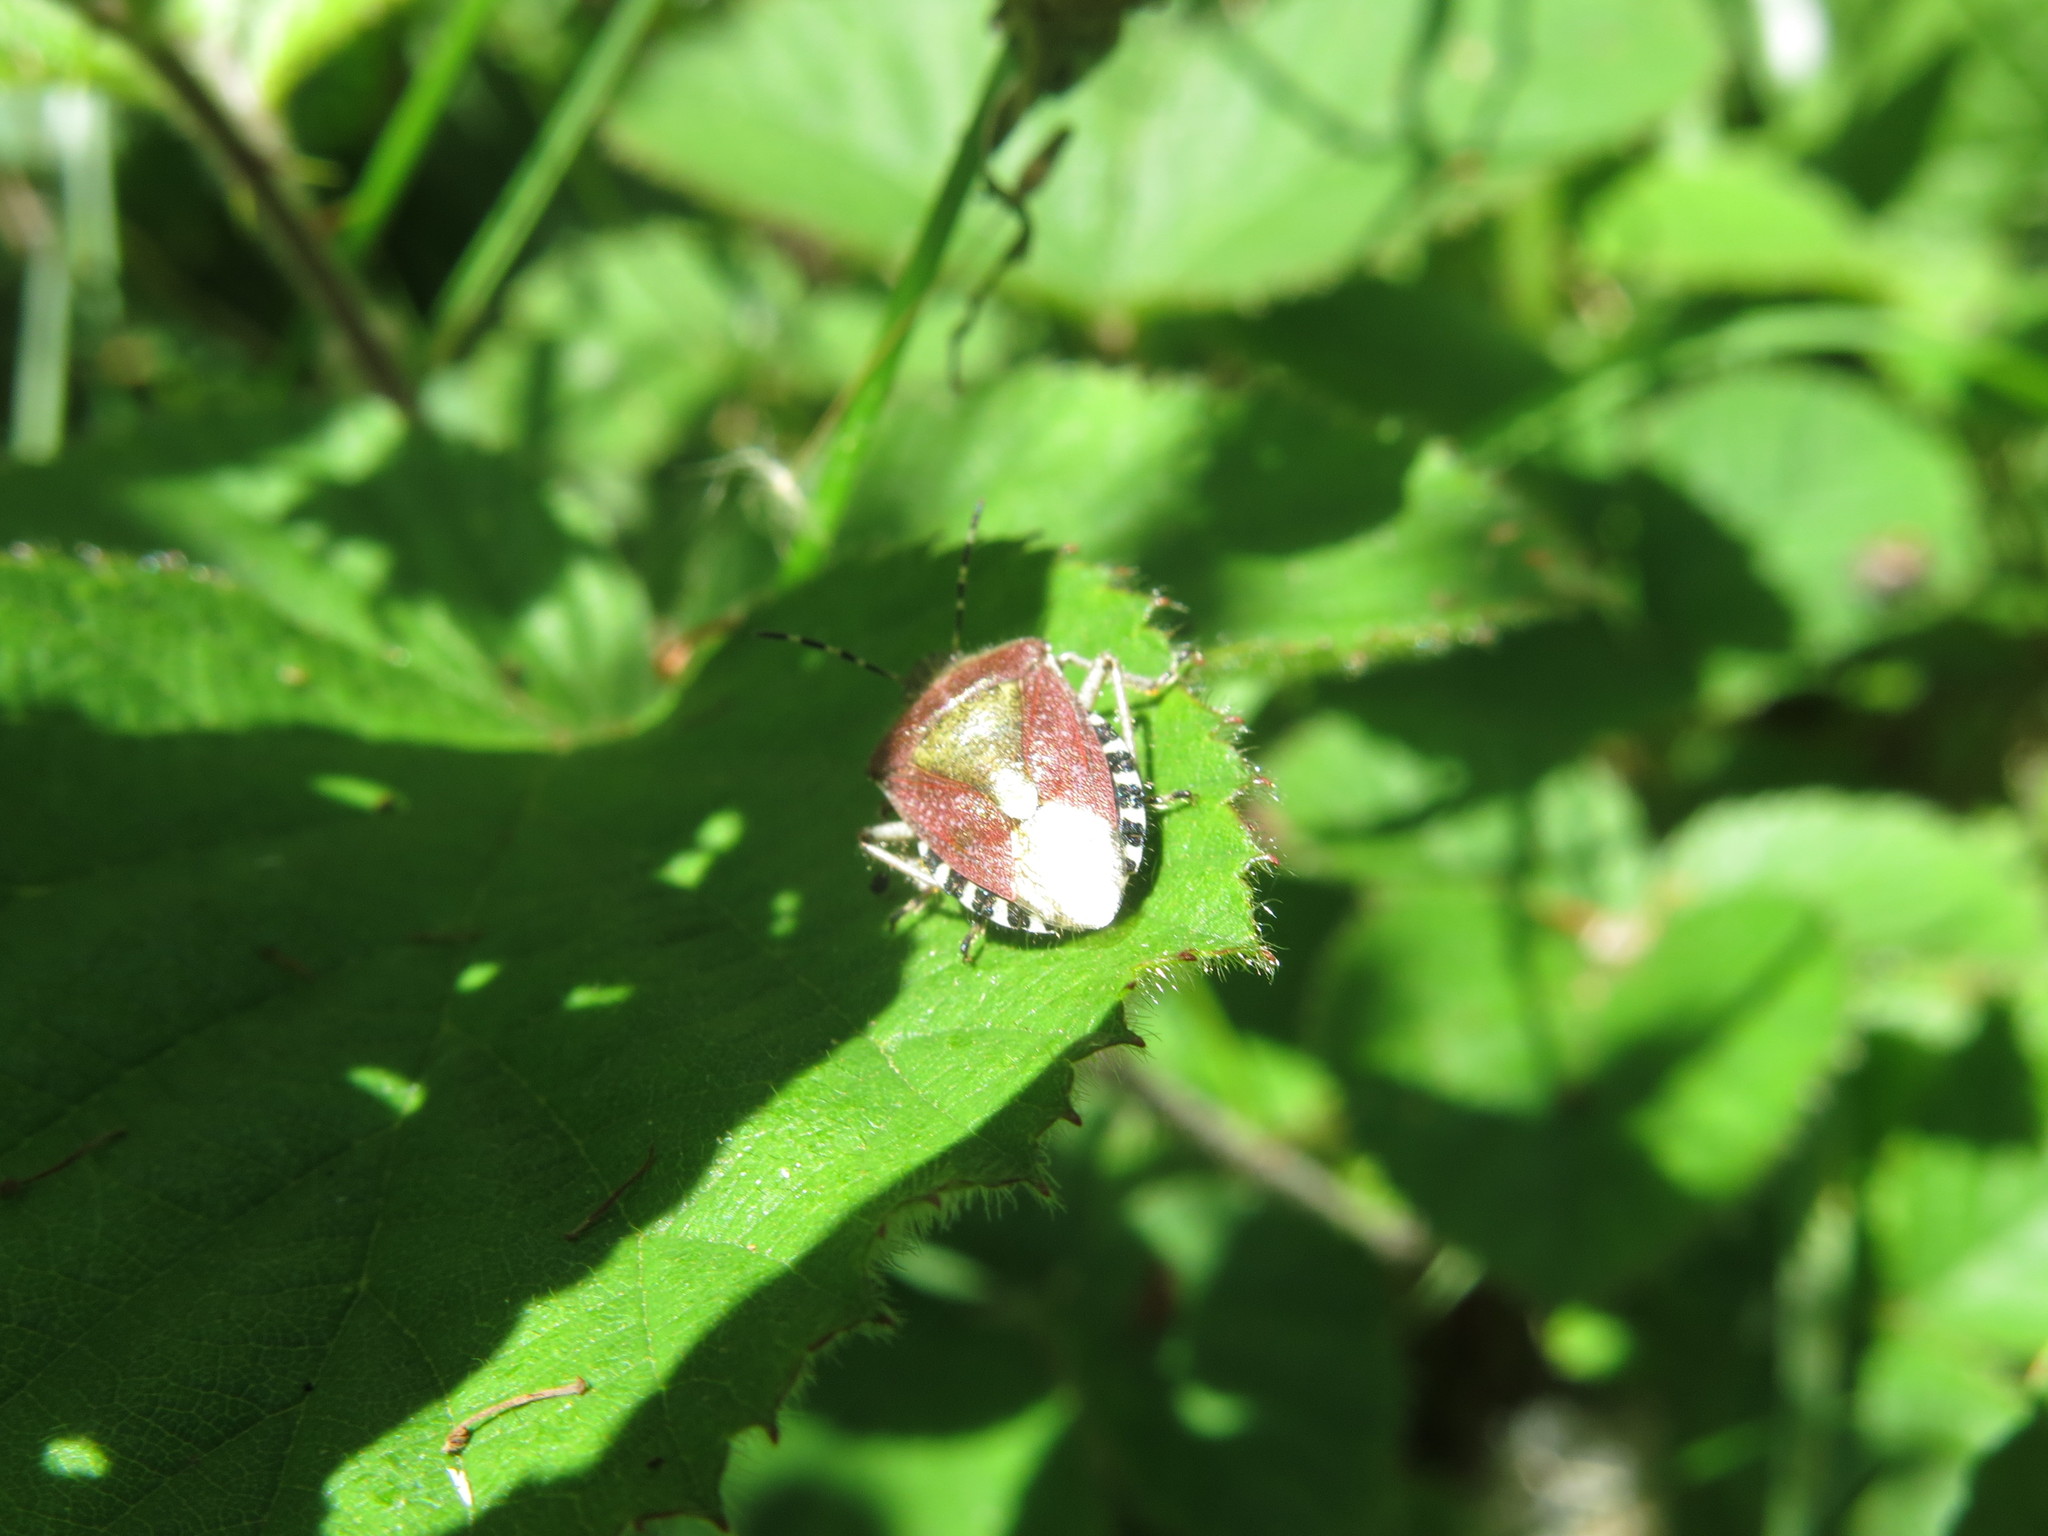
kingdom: Animalia
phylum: Arthropoda
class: Insecta
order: Hemiptera
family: Pentatomidae
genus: Dolycoris
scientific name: Dolycoris baccarum
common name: Sloe bug
